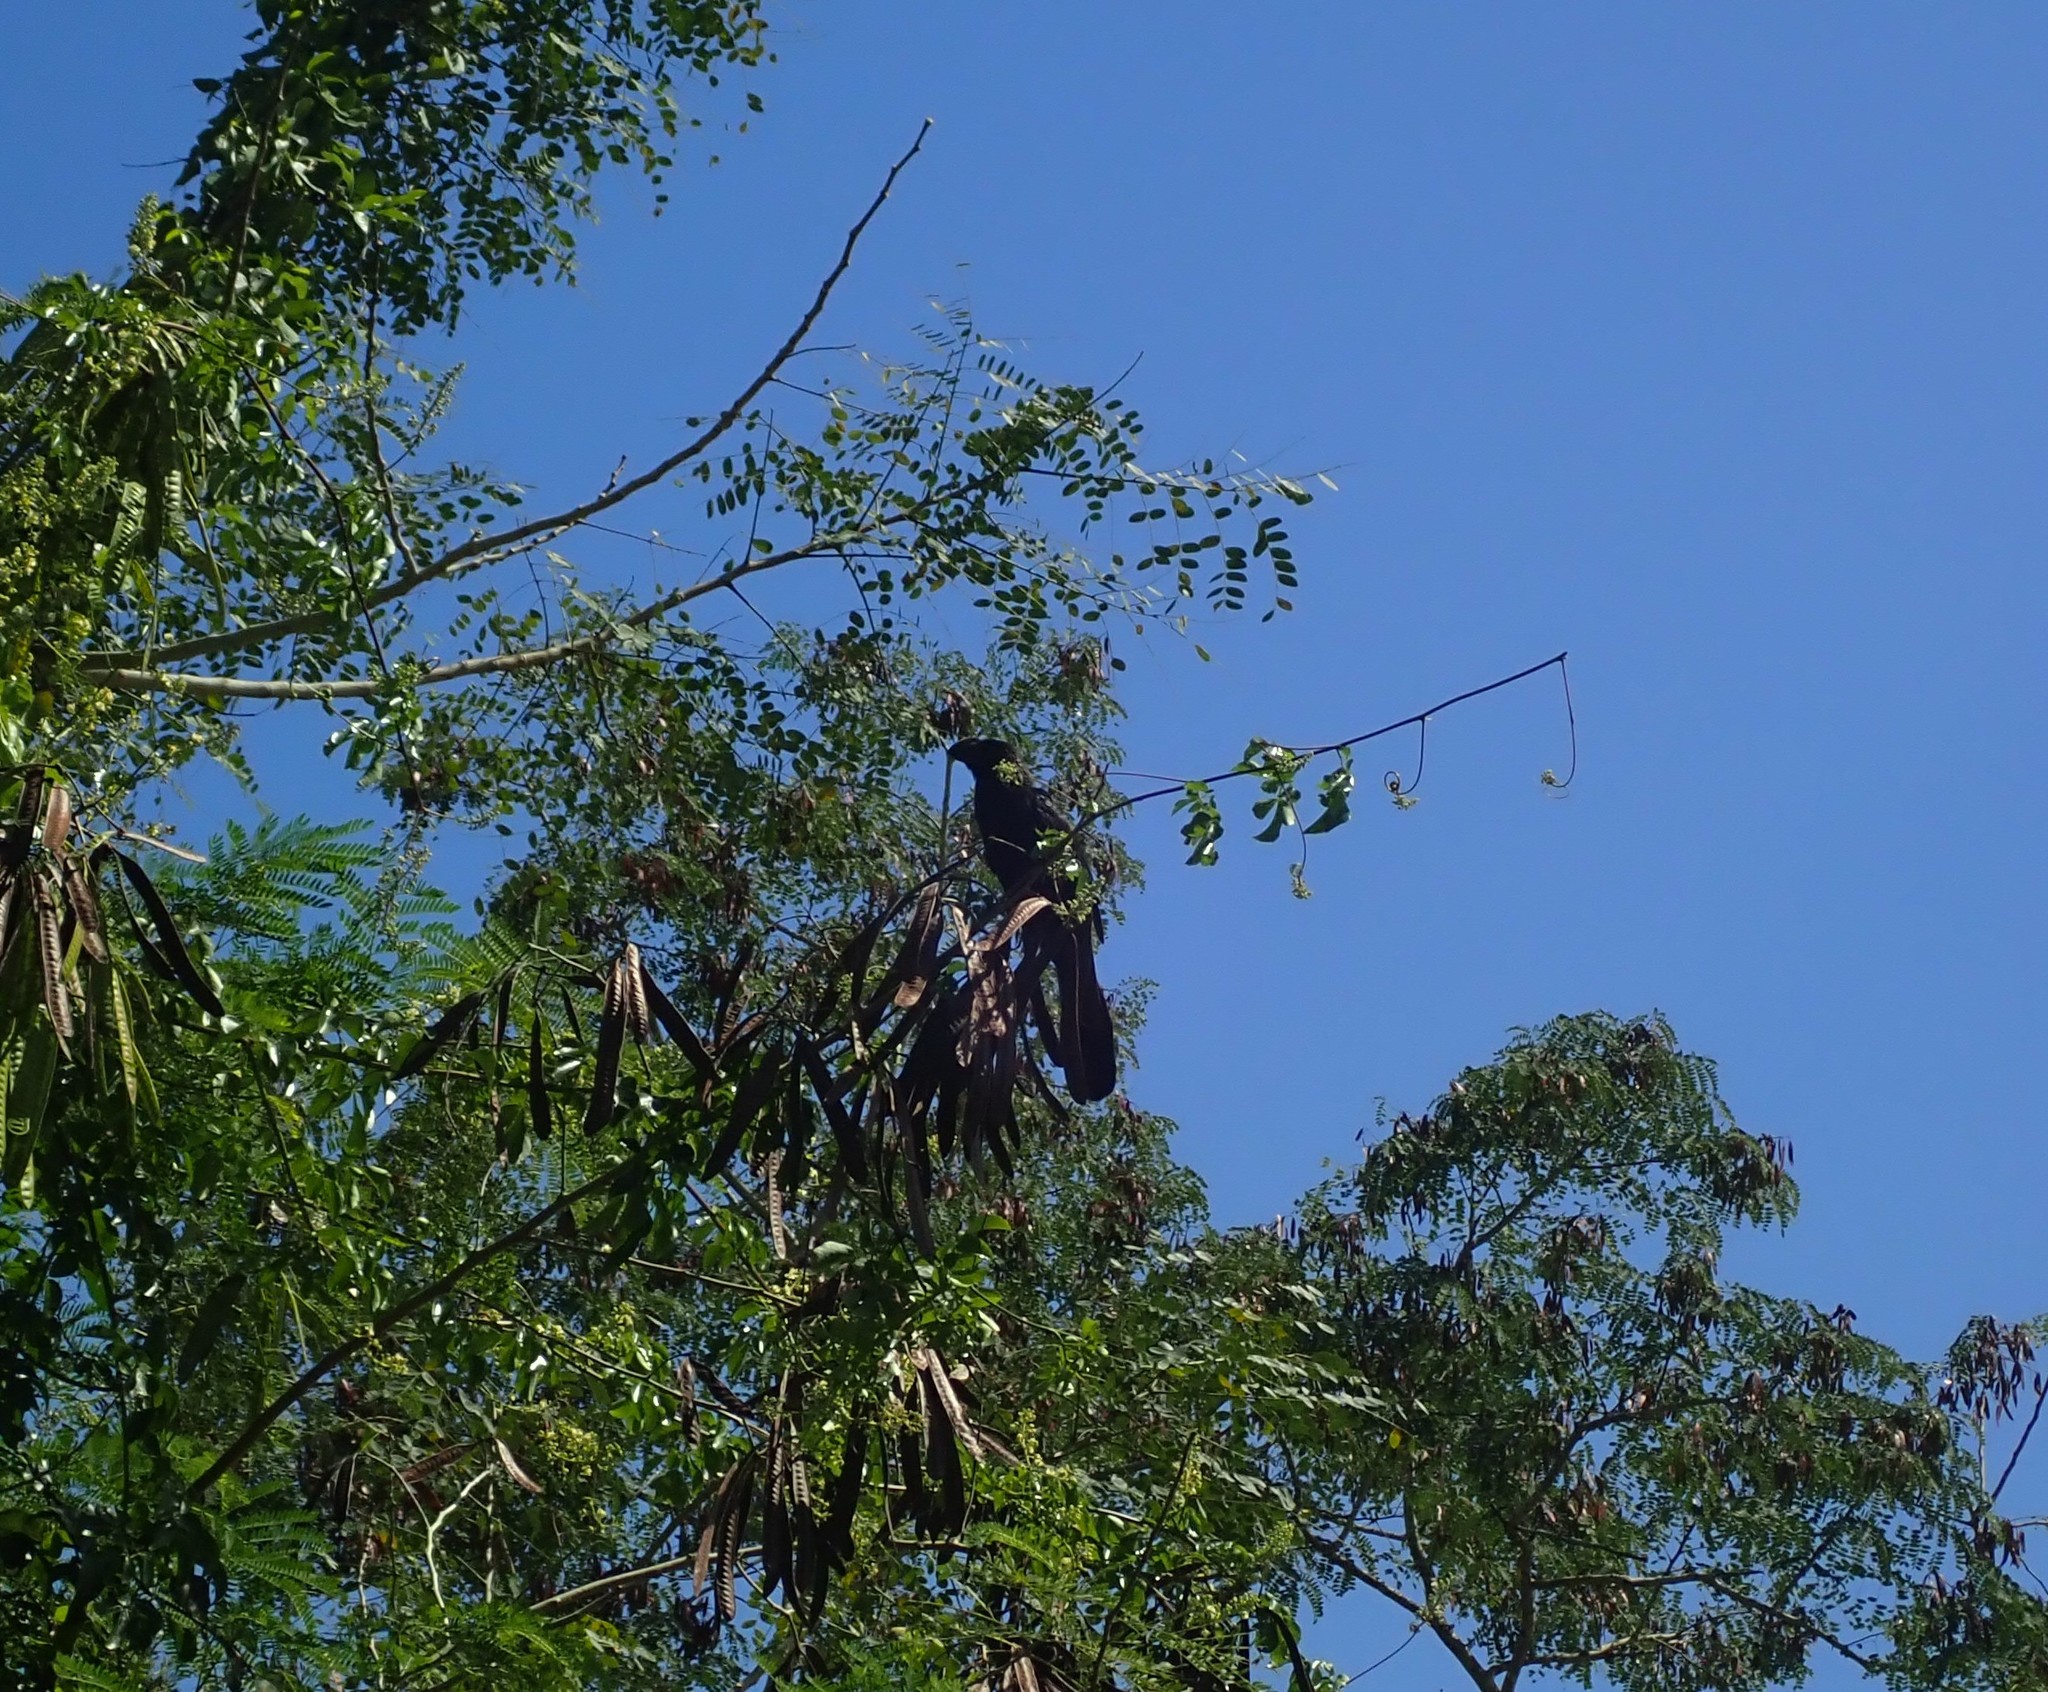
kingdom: Animalia
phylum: Chordata
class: Aves
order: Cuculiformes
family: Cuculidae
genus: Crotophaga
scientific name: Crotophaga ani
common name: Smooth-billed ani
